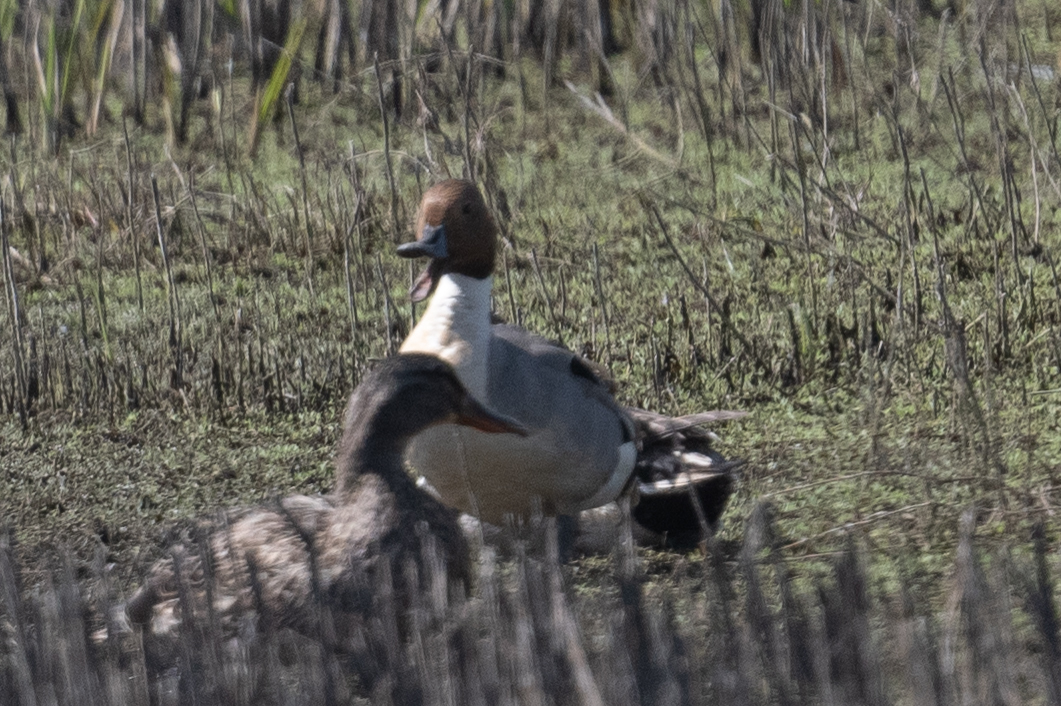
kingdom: Animalia
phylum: Chordata
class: Aves
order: Anseriformes
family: Anatidae
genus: Anas
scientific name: Anas acuta
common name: Northern pintail
